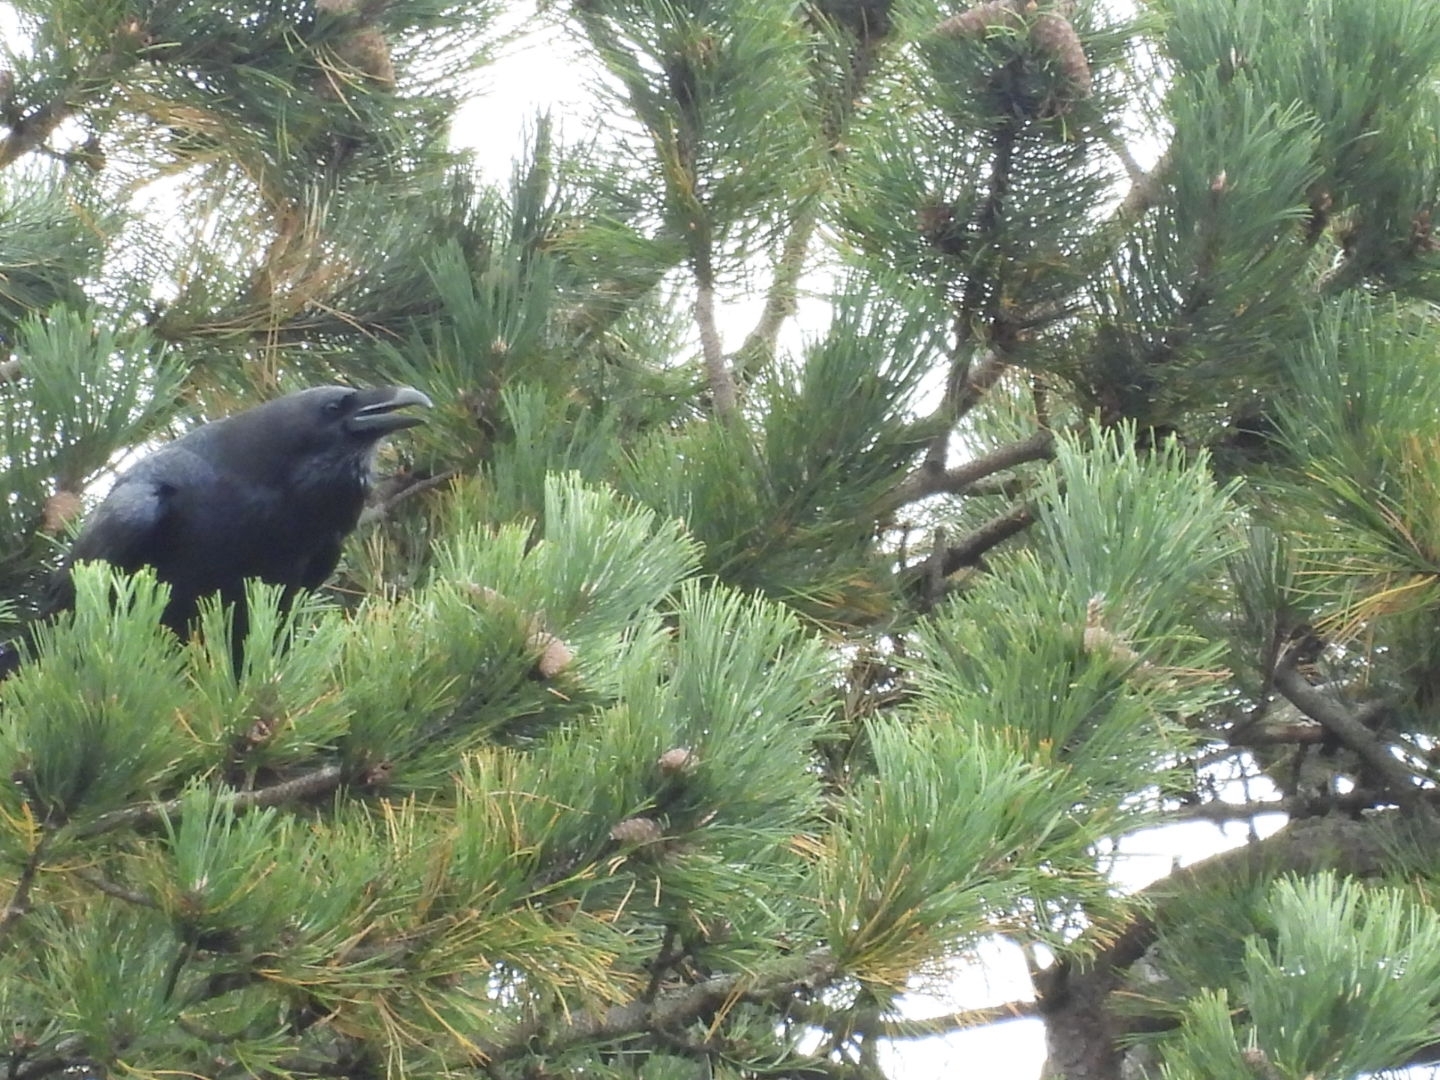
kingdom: Animalia
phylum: Chordata
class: Aves
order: Passeriformes
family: Corvidae
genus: Corvus
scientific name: Corvus corax
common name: Common raven
